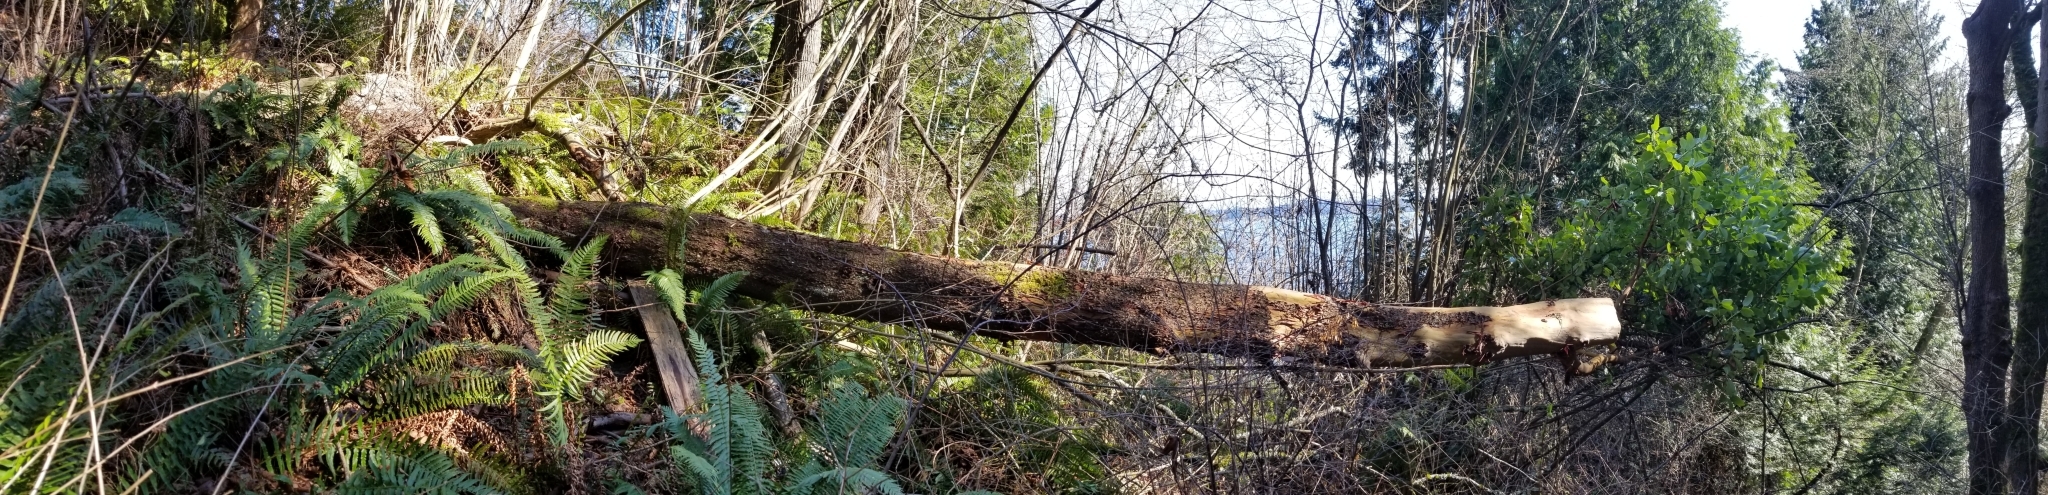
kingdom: Plantae
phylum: Tracheophyta
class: Magnoliopsida
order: Ericales
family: Ericaceae
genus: Arbutus
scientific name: Arbutus menziesii
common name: Pacific madrone
